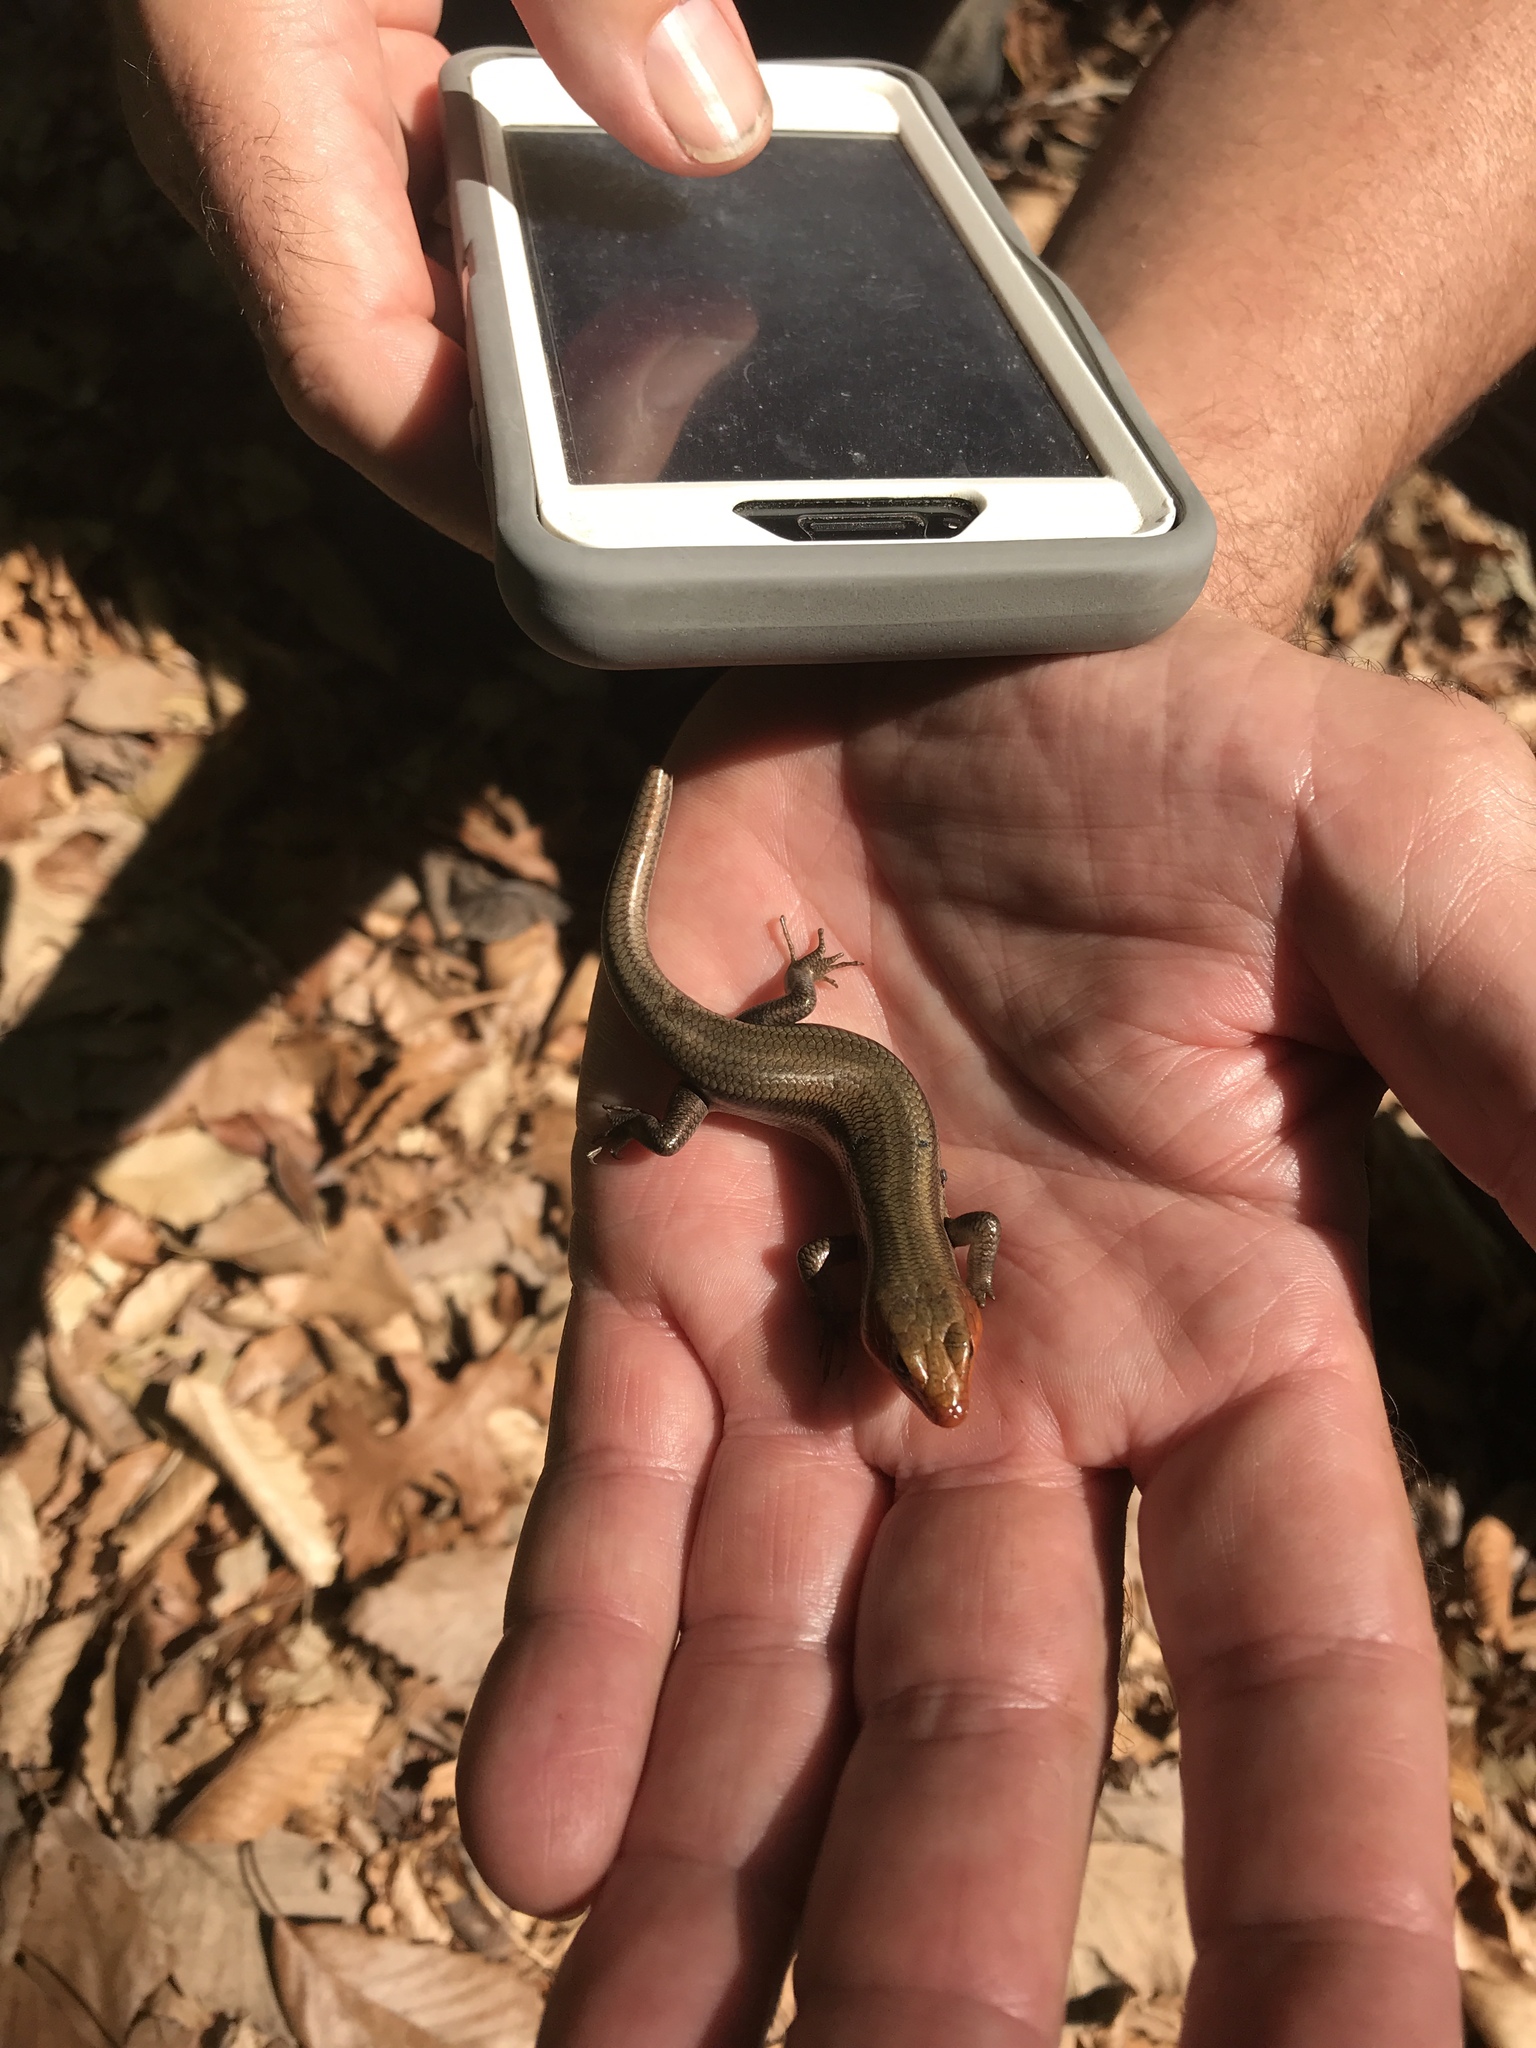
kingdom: Animalia
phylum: Chordata
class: Squamata
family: Scincidae
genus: Plestiodon
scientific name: Plestiodon fasciatus
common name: Five-lined skink
